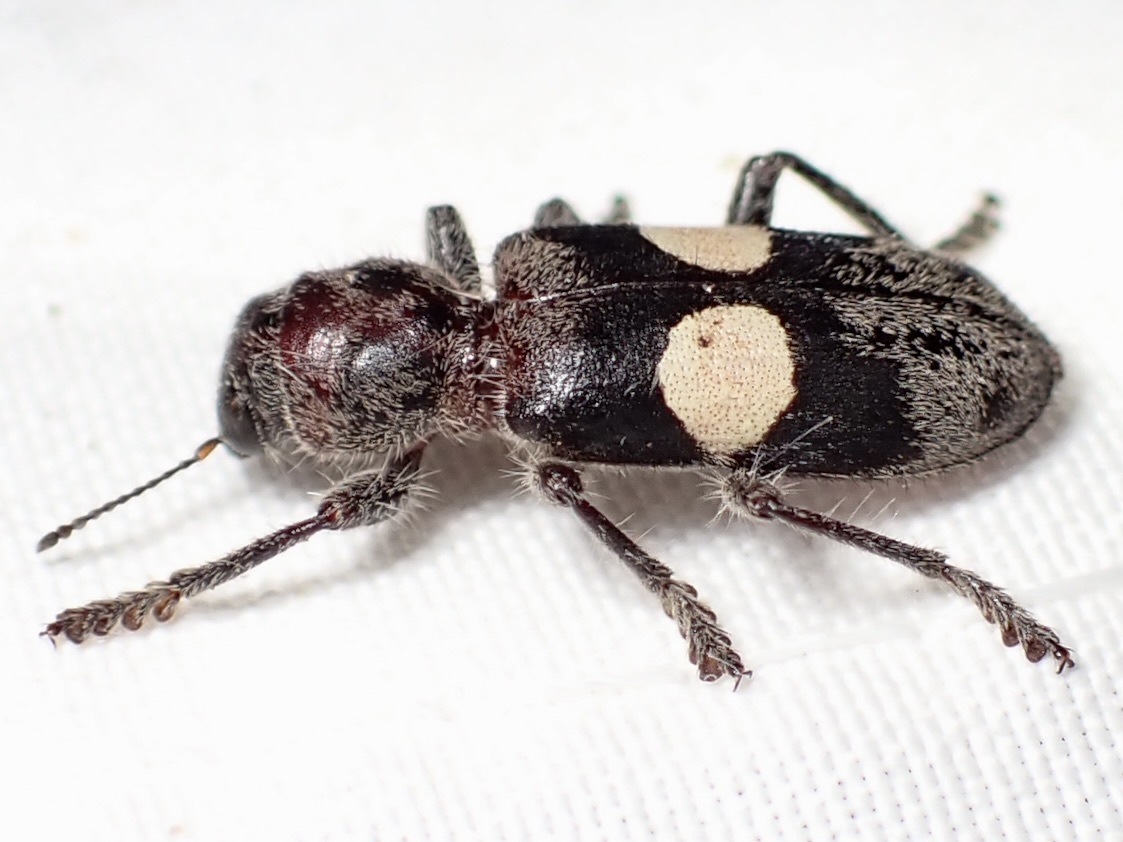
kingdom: Animalia
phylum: Arthropoda
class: Insecta
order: Coleoptera
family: Cleridae
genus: Enoclerus
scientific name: Enoclerus bimaculatus
